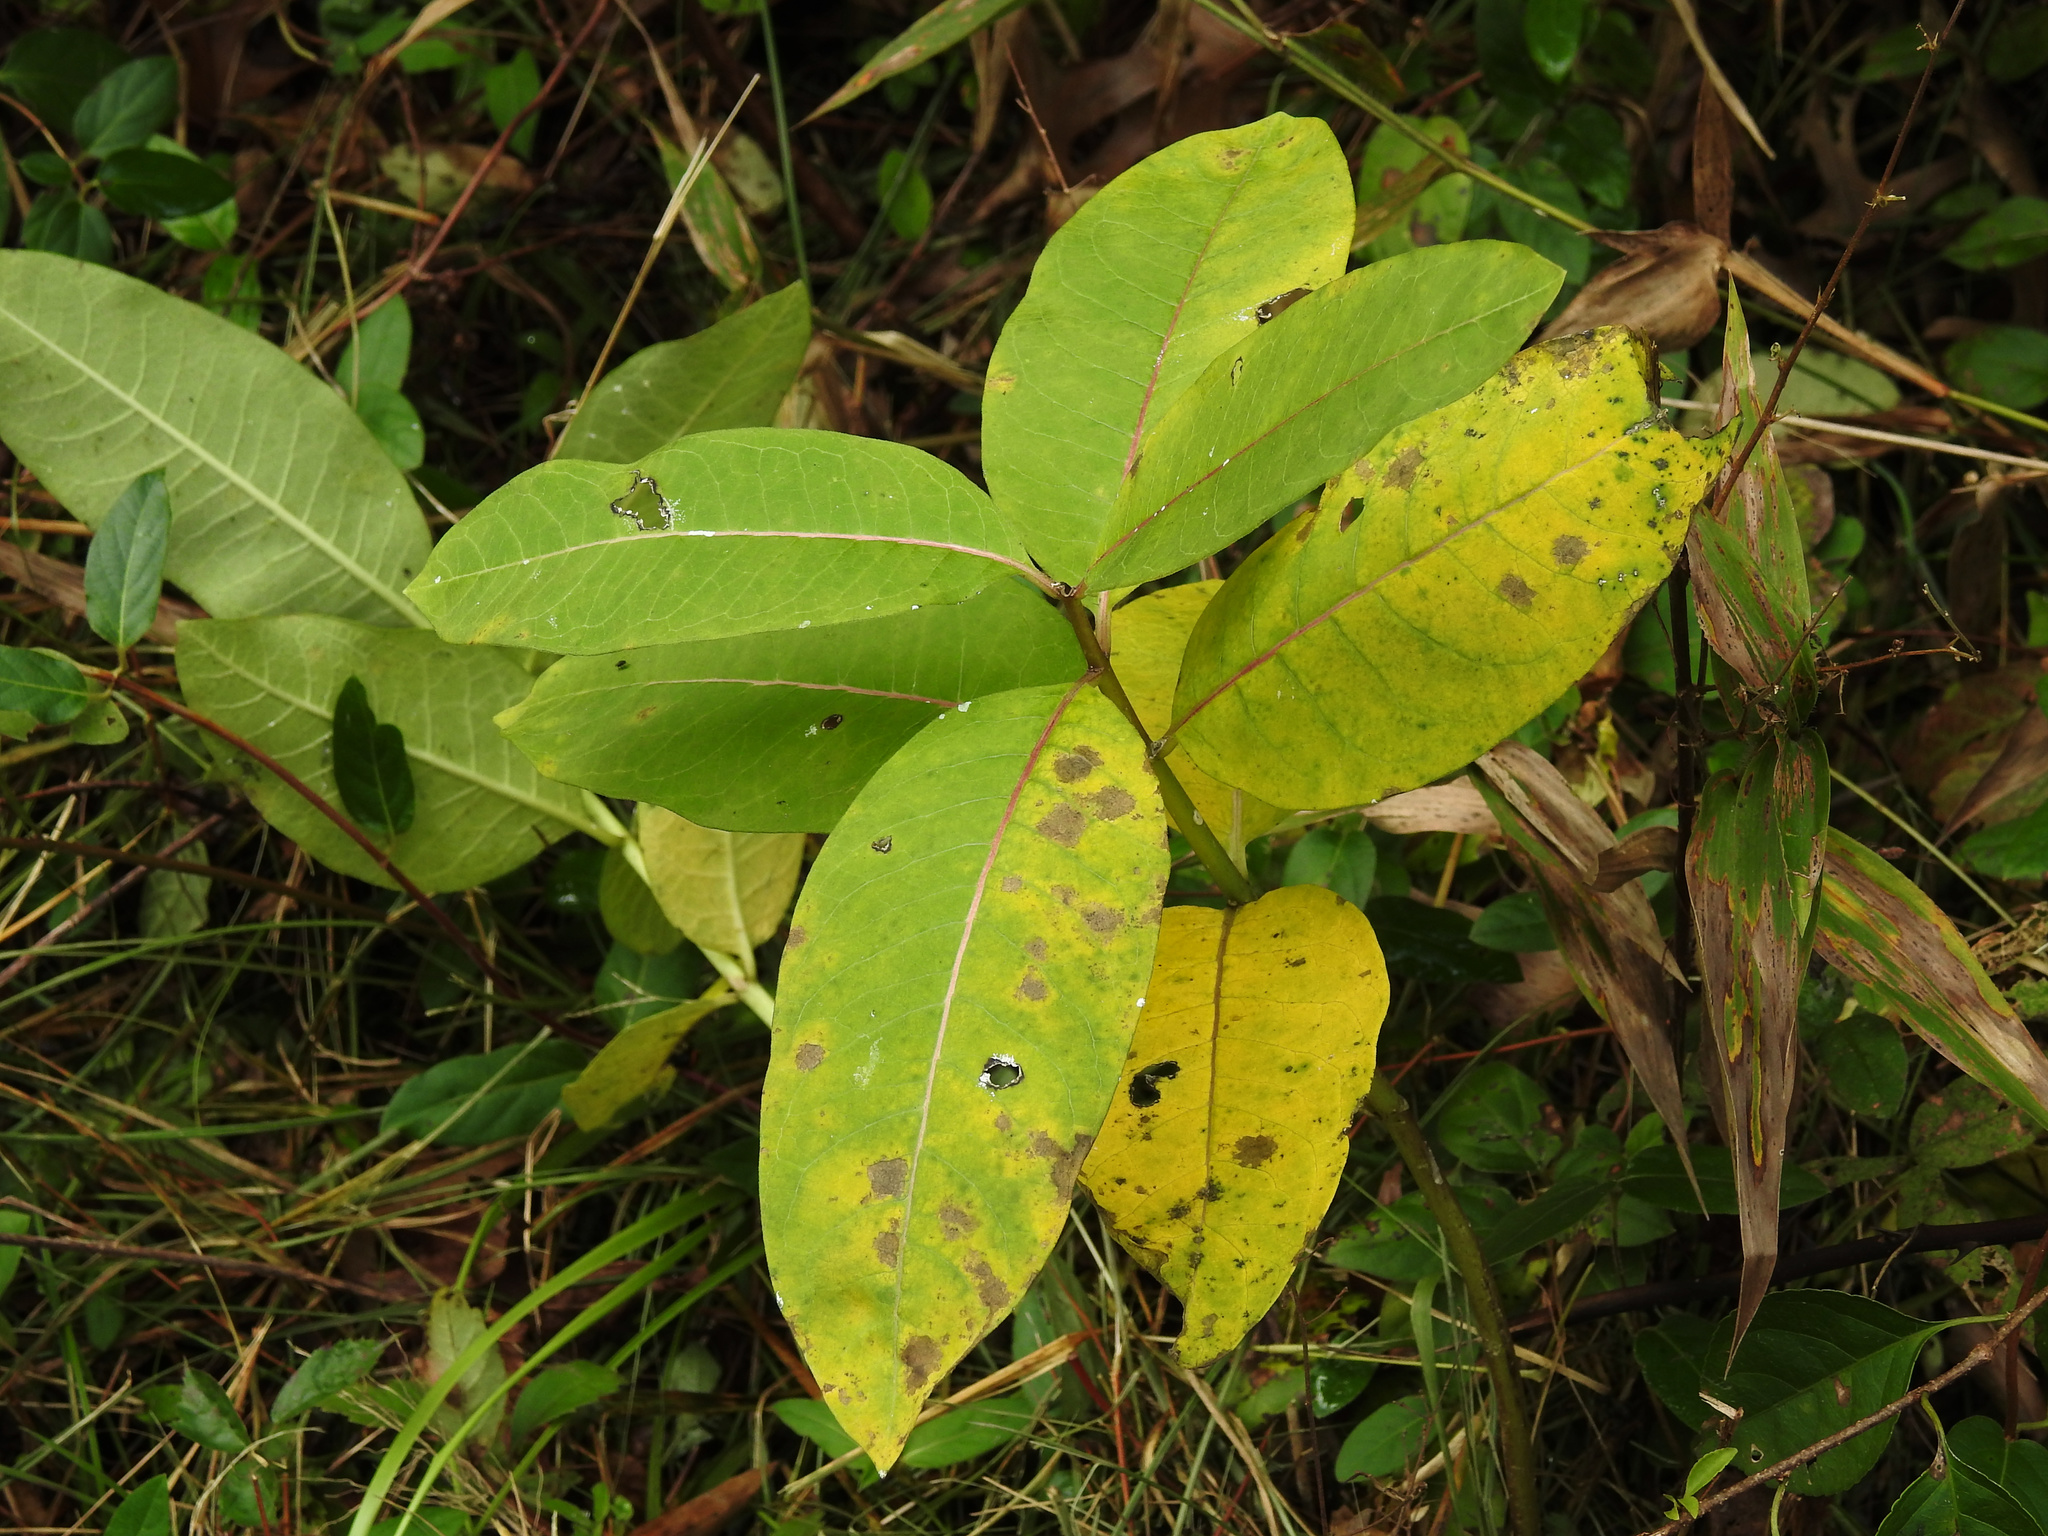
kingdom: Plantae
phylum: Tracheophyta
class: Magnoliopsida
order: Gentianales
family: Apocynaceae
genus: Asclepias
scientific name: Asclepias syriaca
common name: Common milkweed
